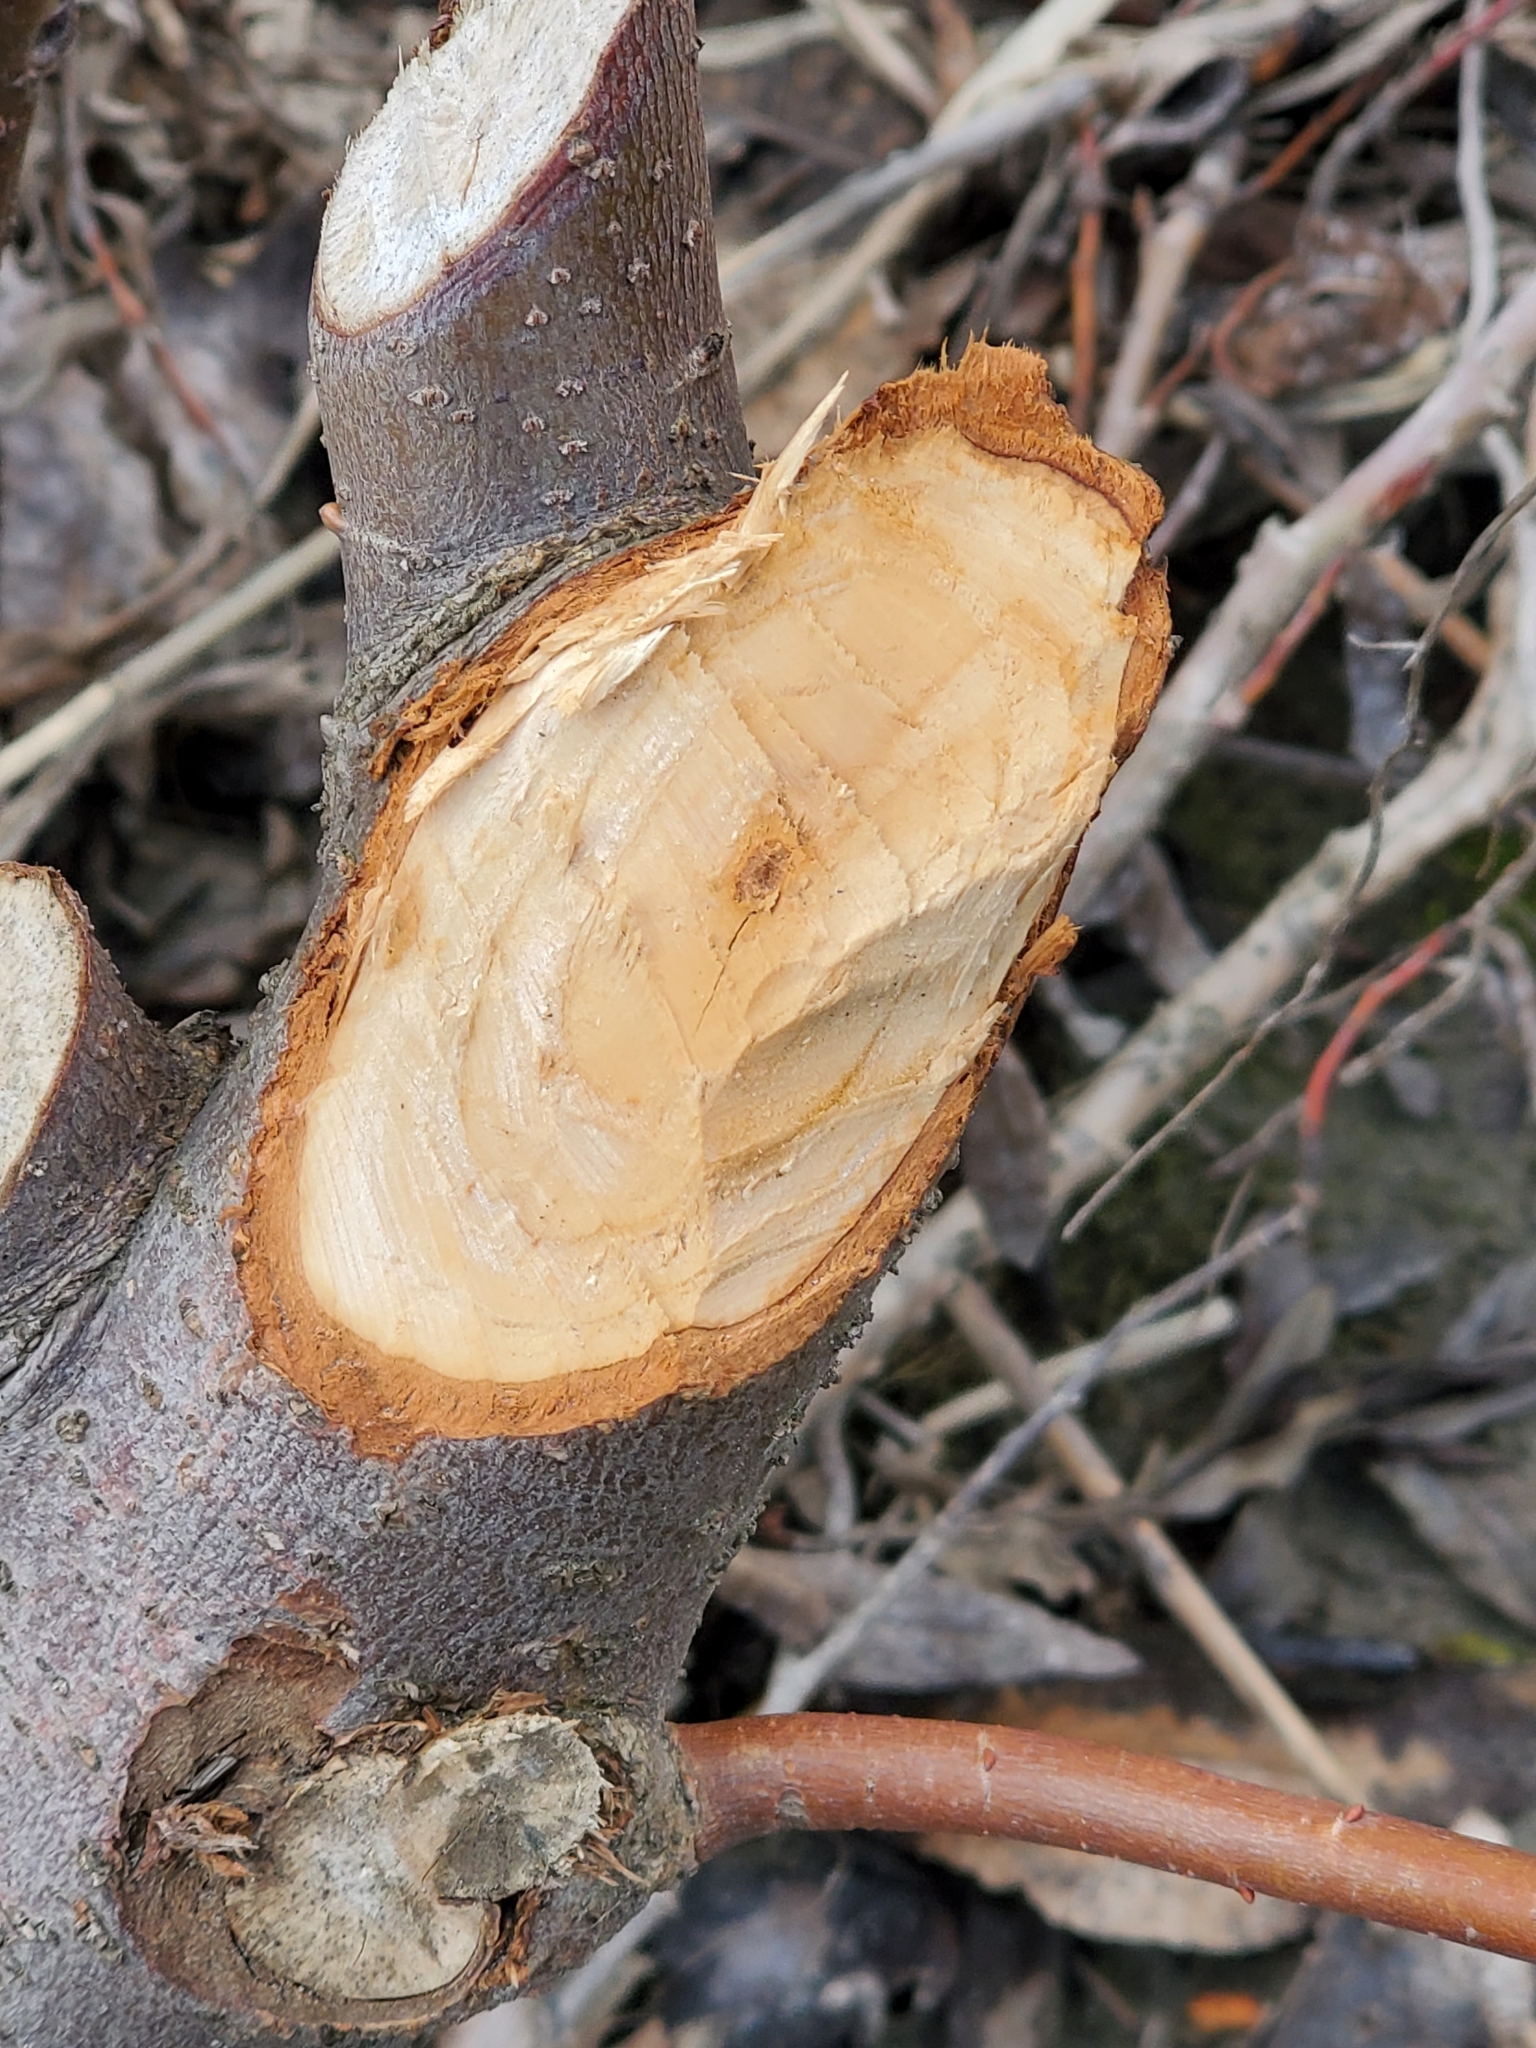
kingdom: Animalia
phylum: Chordata
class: Mammalia
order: Rodentia
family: Castoridae
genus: Castor
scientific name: Castor canadensis
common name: American beaver
